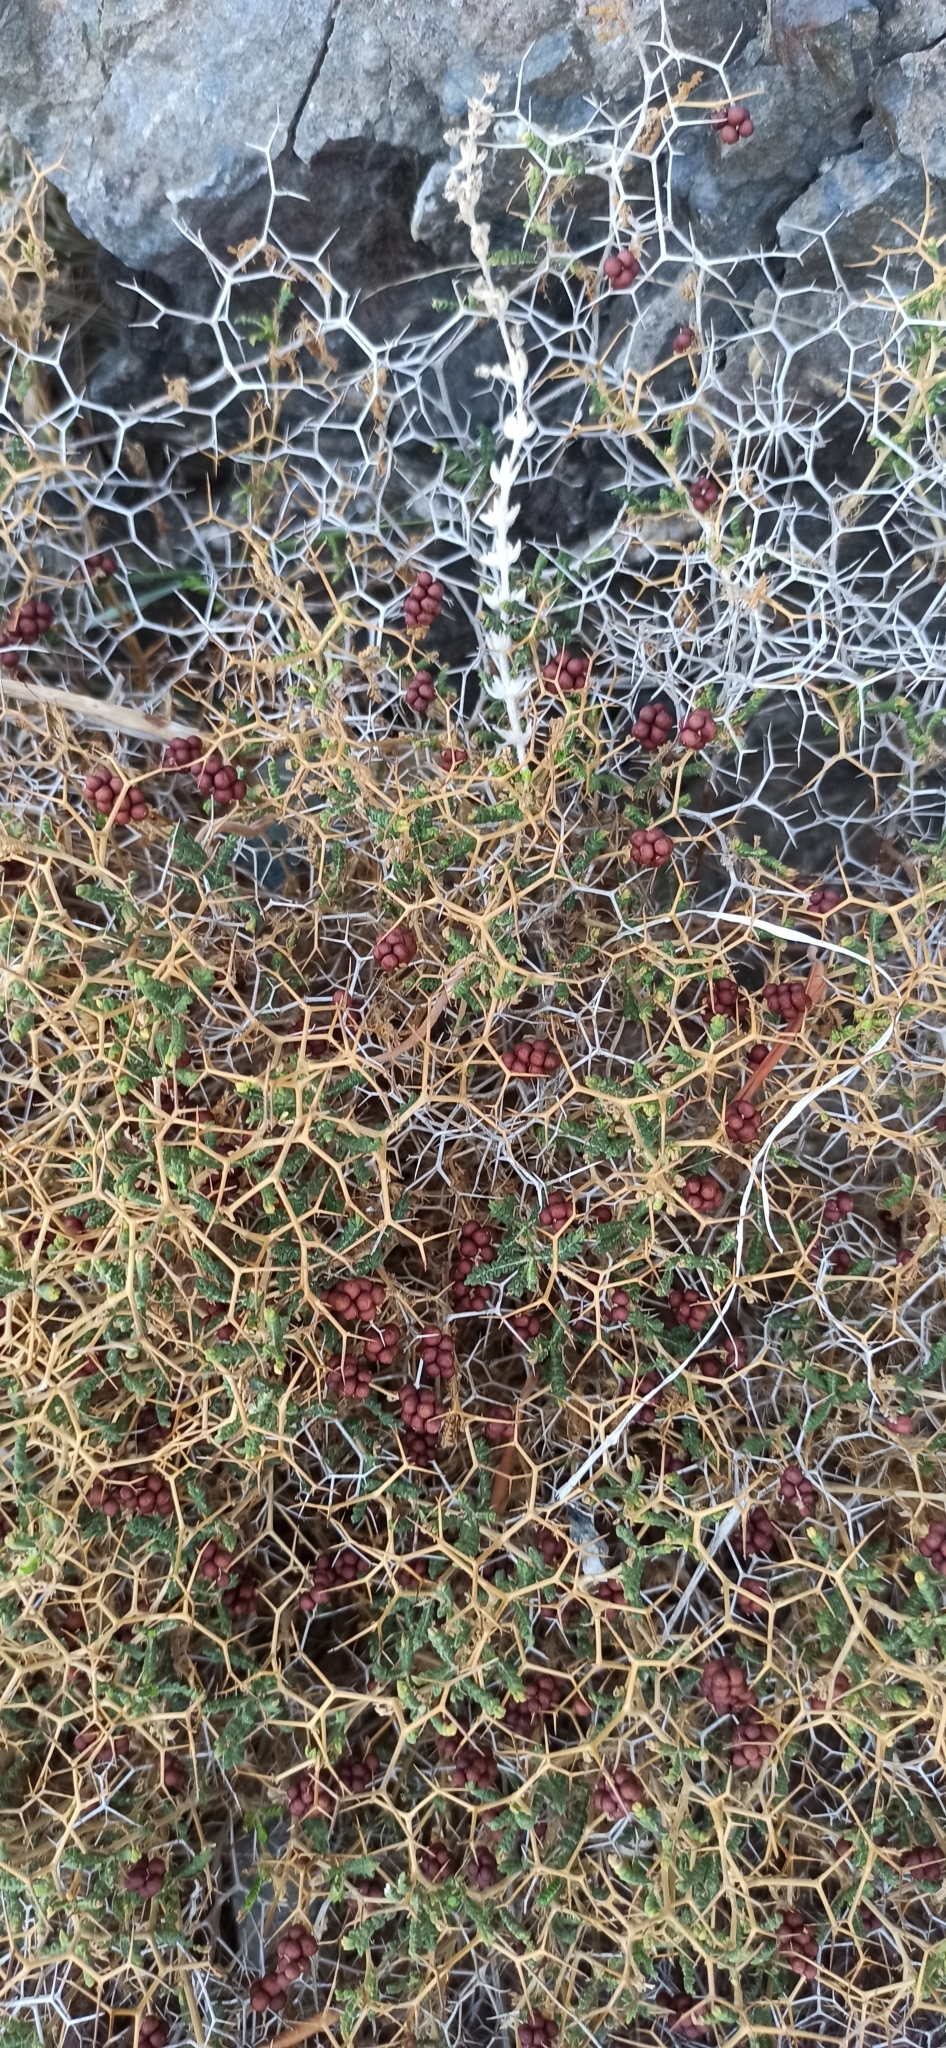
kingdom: Plantae
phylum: Tracheophyta
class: Magnoliopsida
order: Rosales
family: Rosaceae
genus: Sarcopoterium
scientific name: Sarcopoterium spinosum
